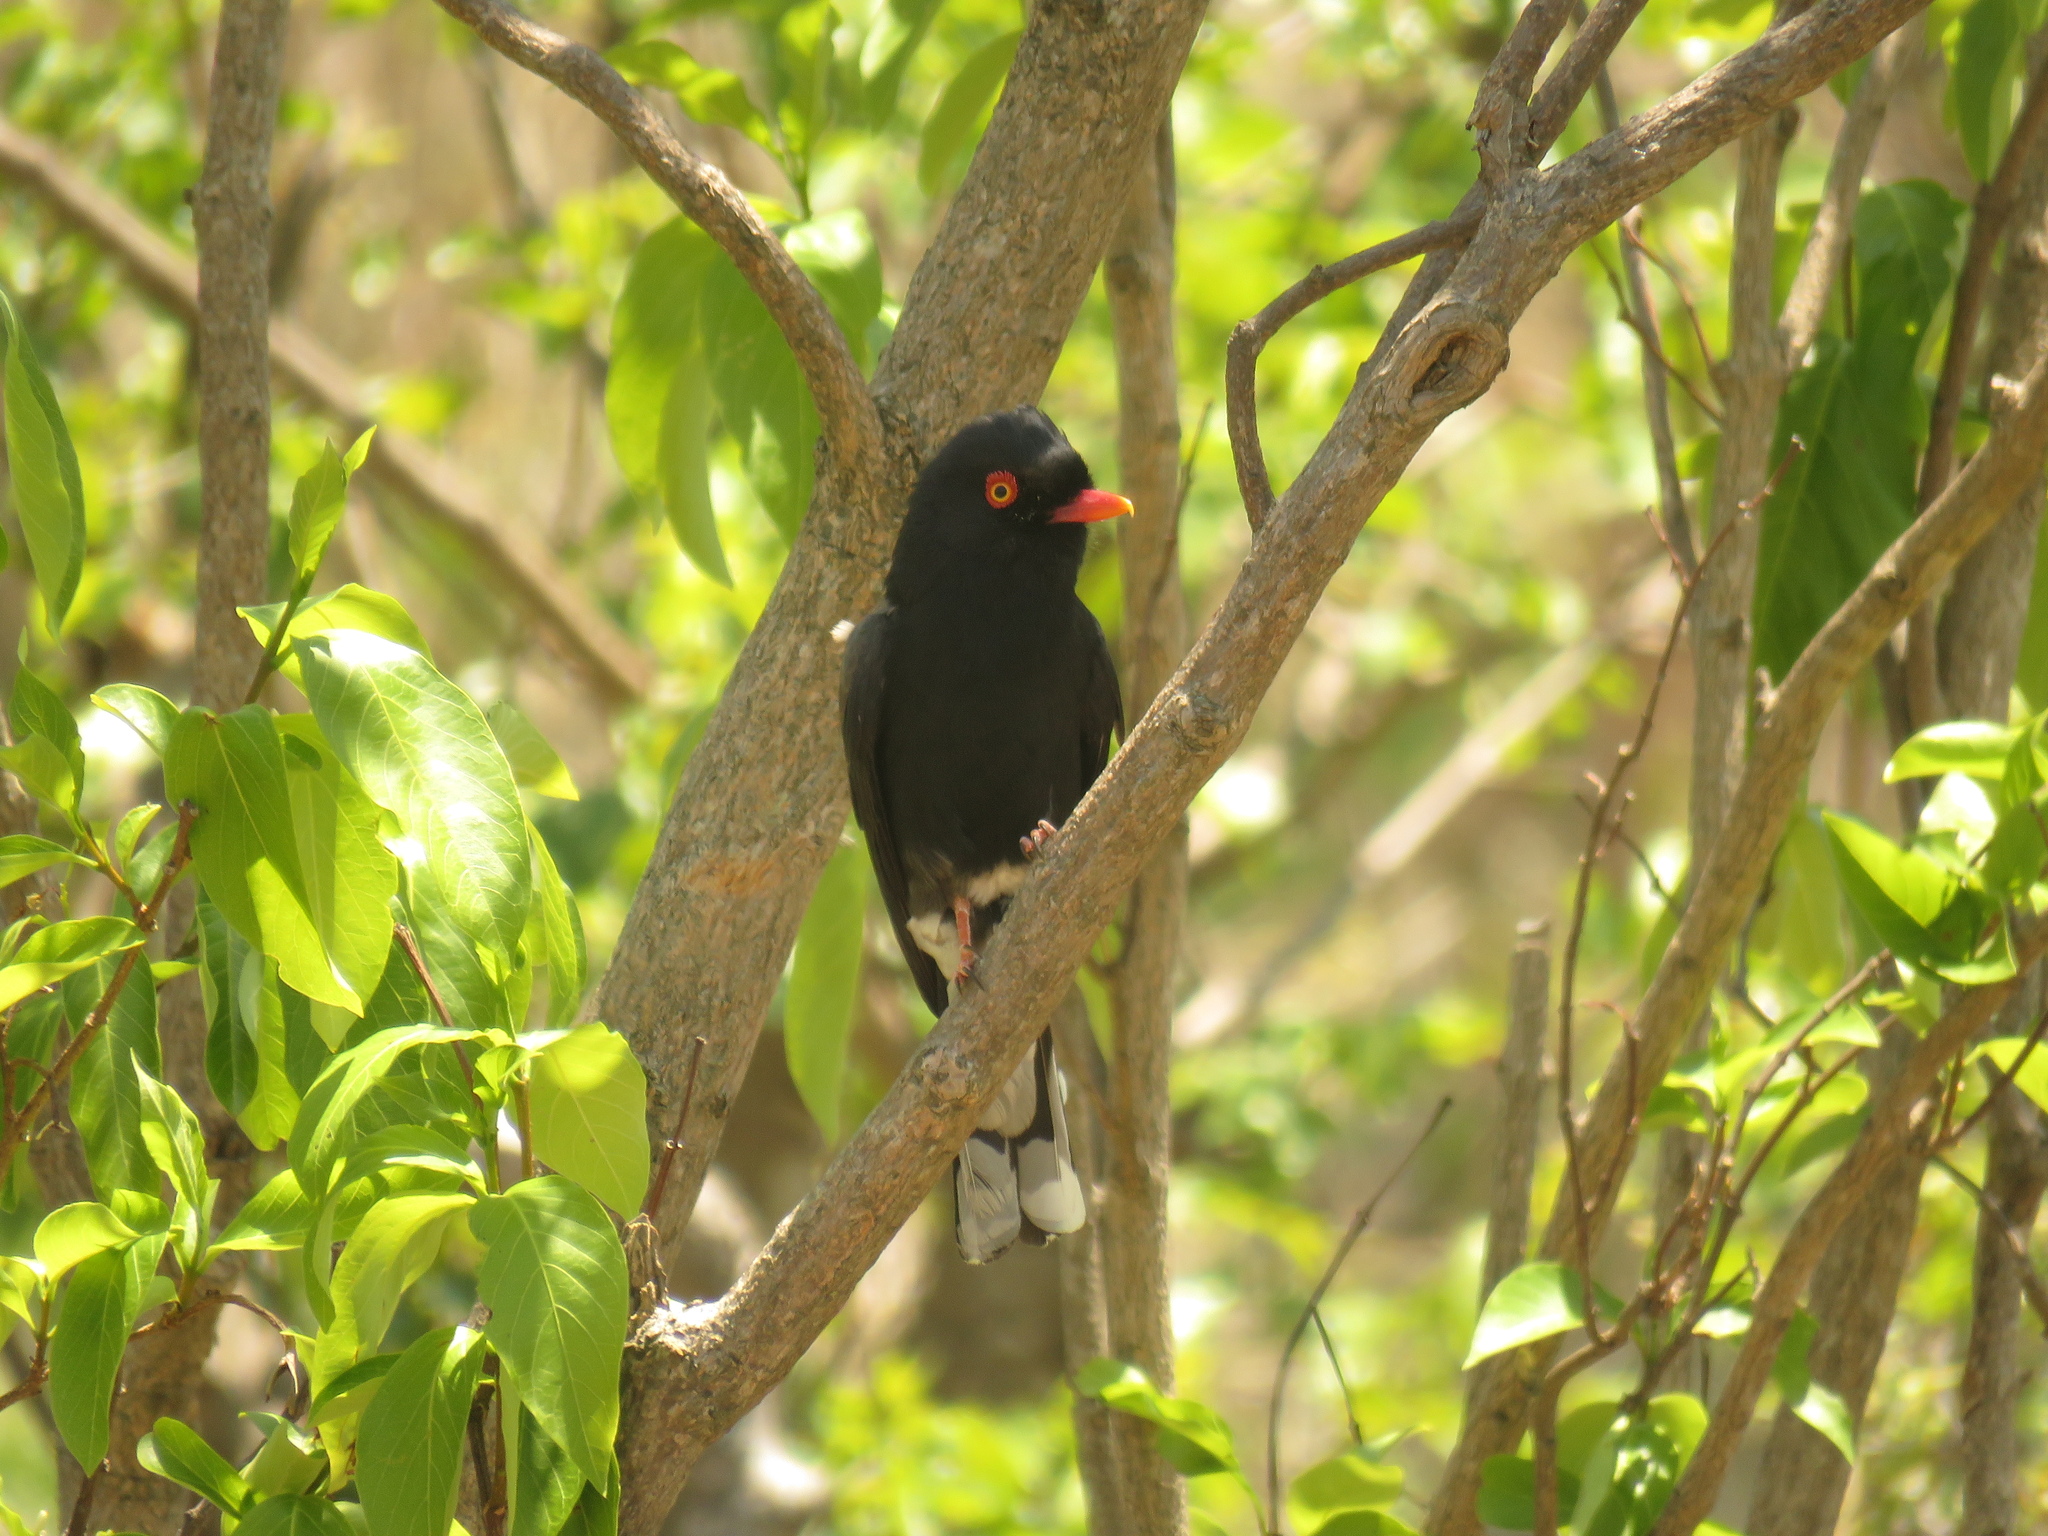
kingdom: Animalia
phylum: Chordata
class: Aves
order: Passeriformes
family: Prionopidae
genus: Prionops
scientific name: Prionops retzii
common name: Retz's helmetshrike
